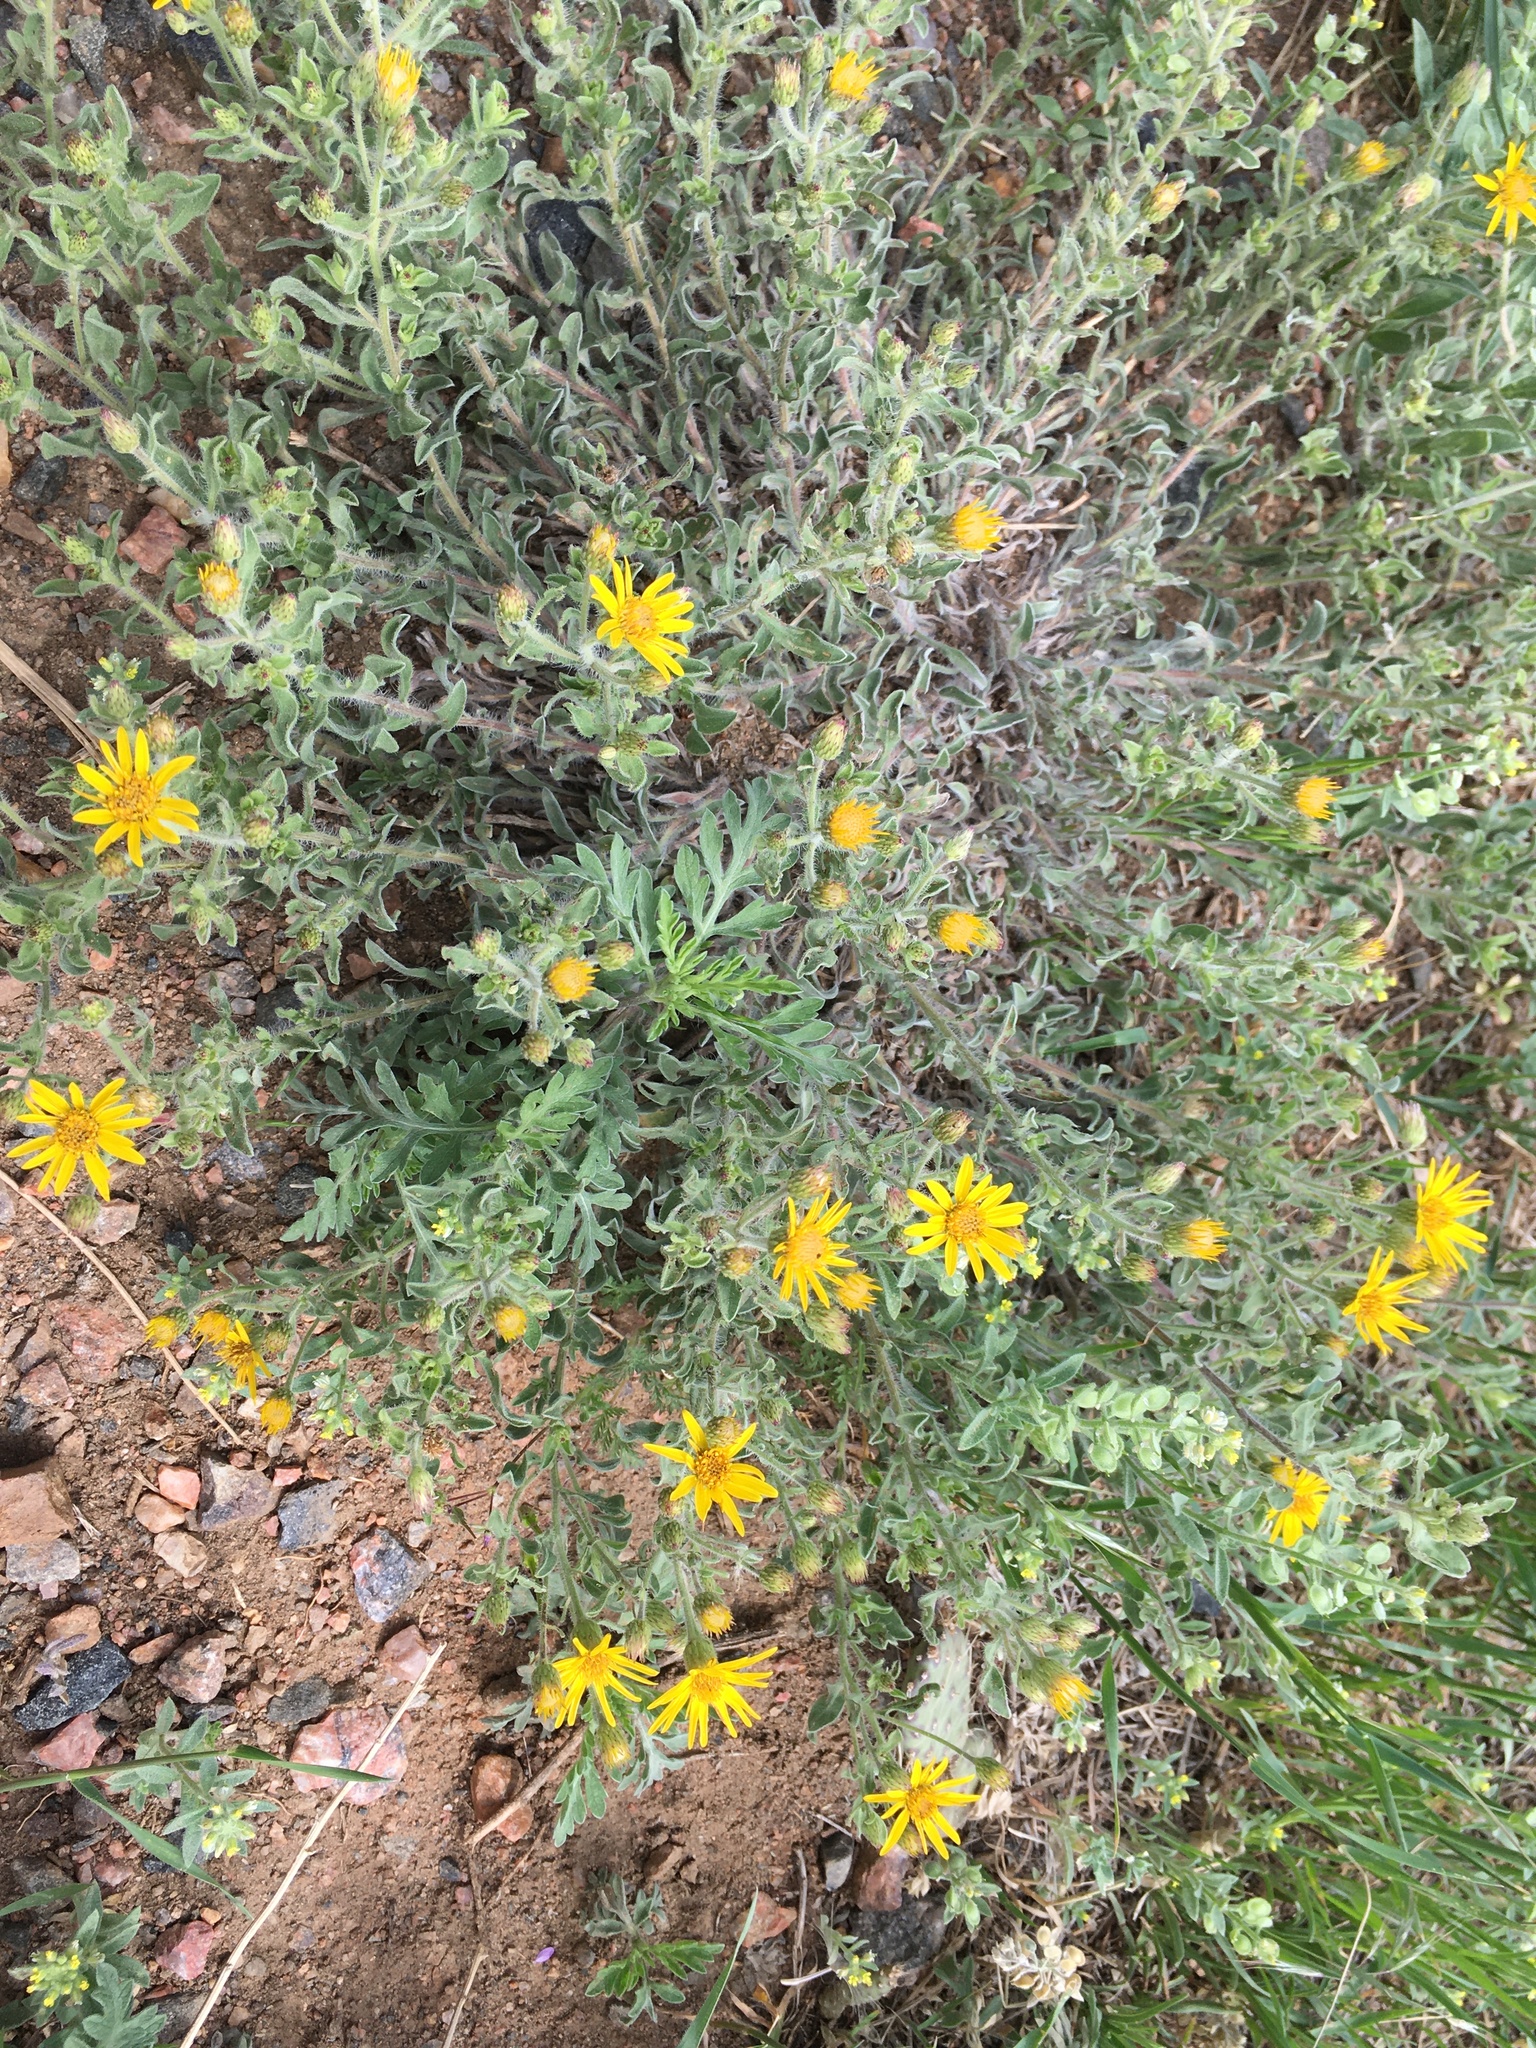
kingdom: Plantae
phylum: Tracheophyta
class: Magnoliopsida
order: Asterales
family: Asteraceae
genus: Heterotheca
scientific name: Heterotheca villosa
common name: Hairy false goldenaster
